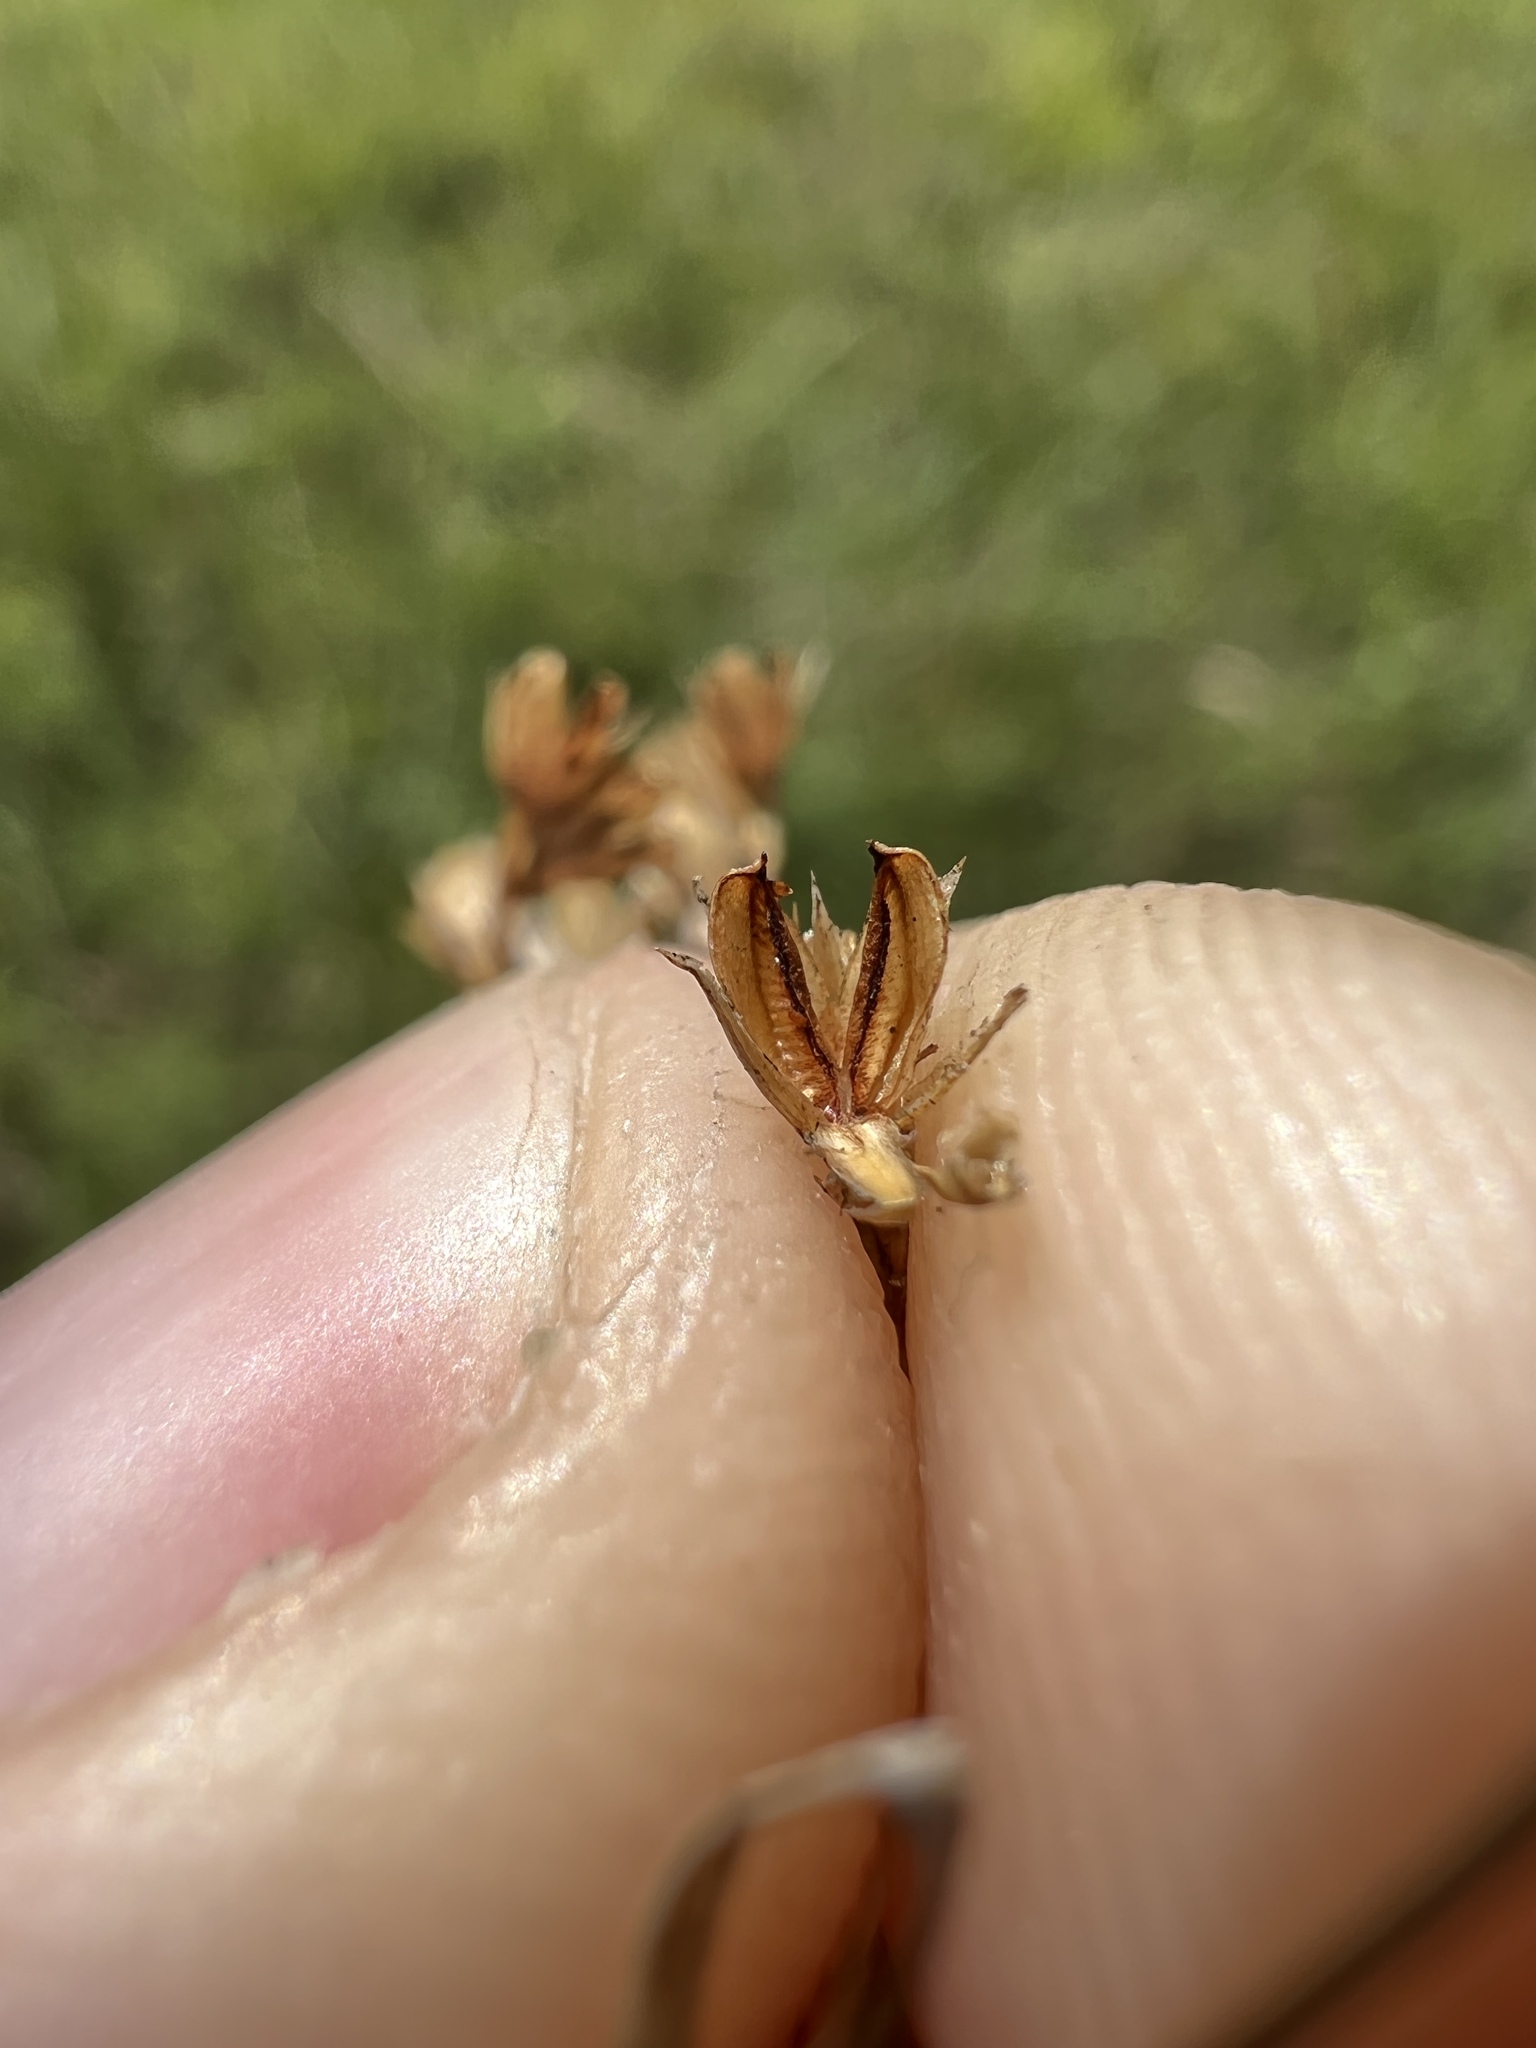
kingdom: Plantae
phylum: Tracheophyta
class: Liliopsida
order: Poales
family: Juncaceae
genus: Juncus
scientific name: Juncus brachyphyllus
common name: Tufted-stem rush
